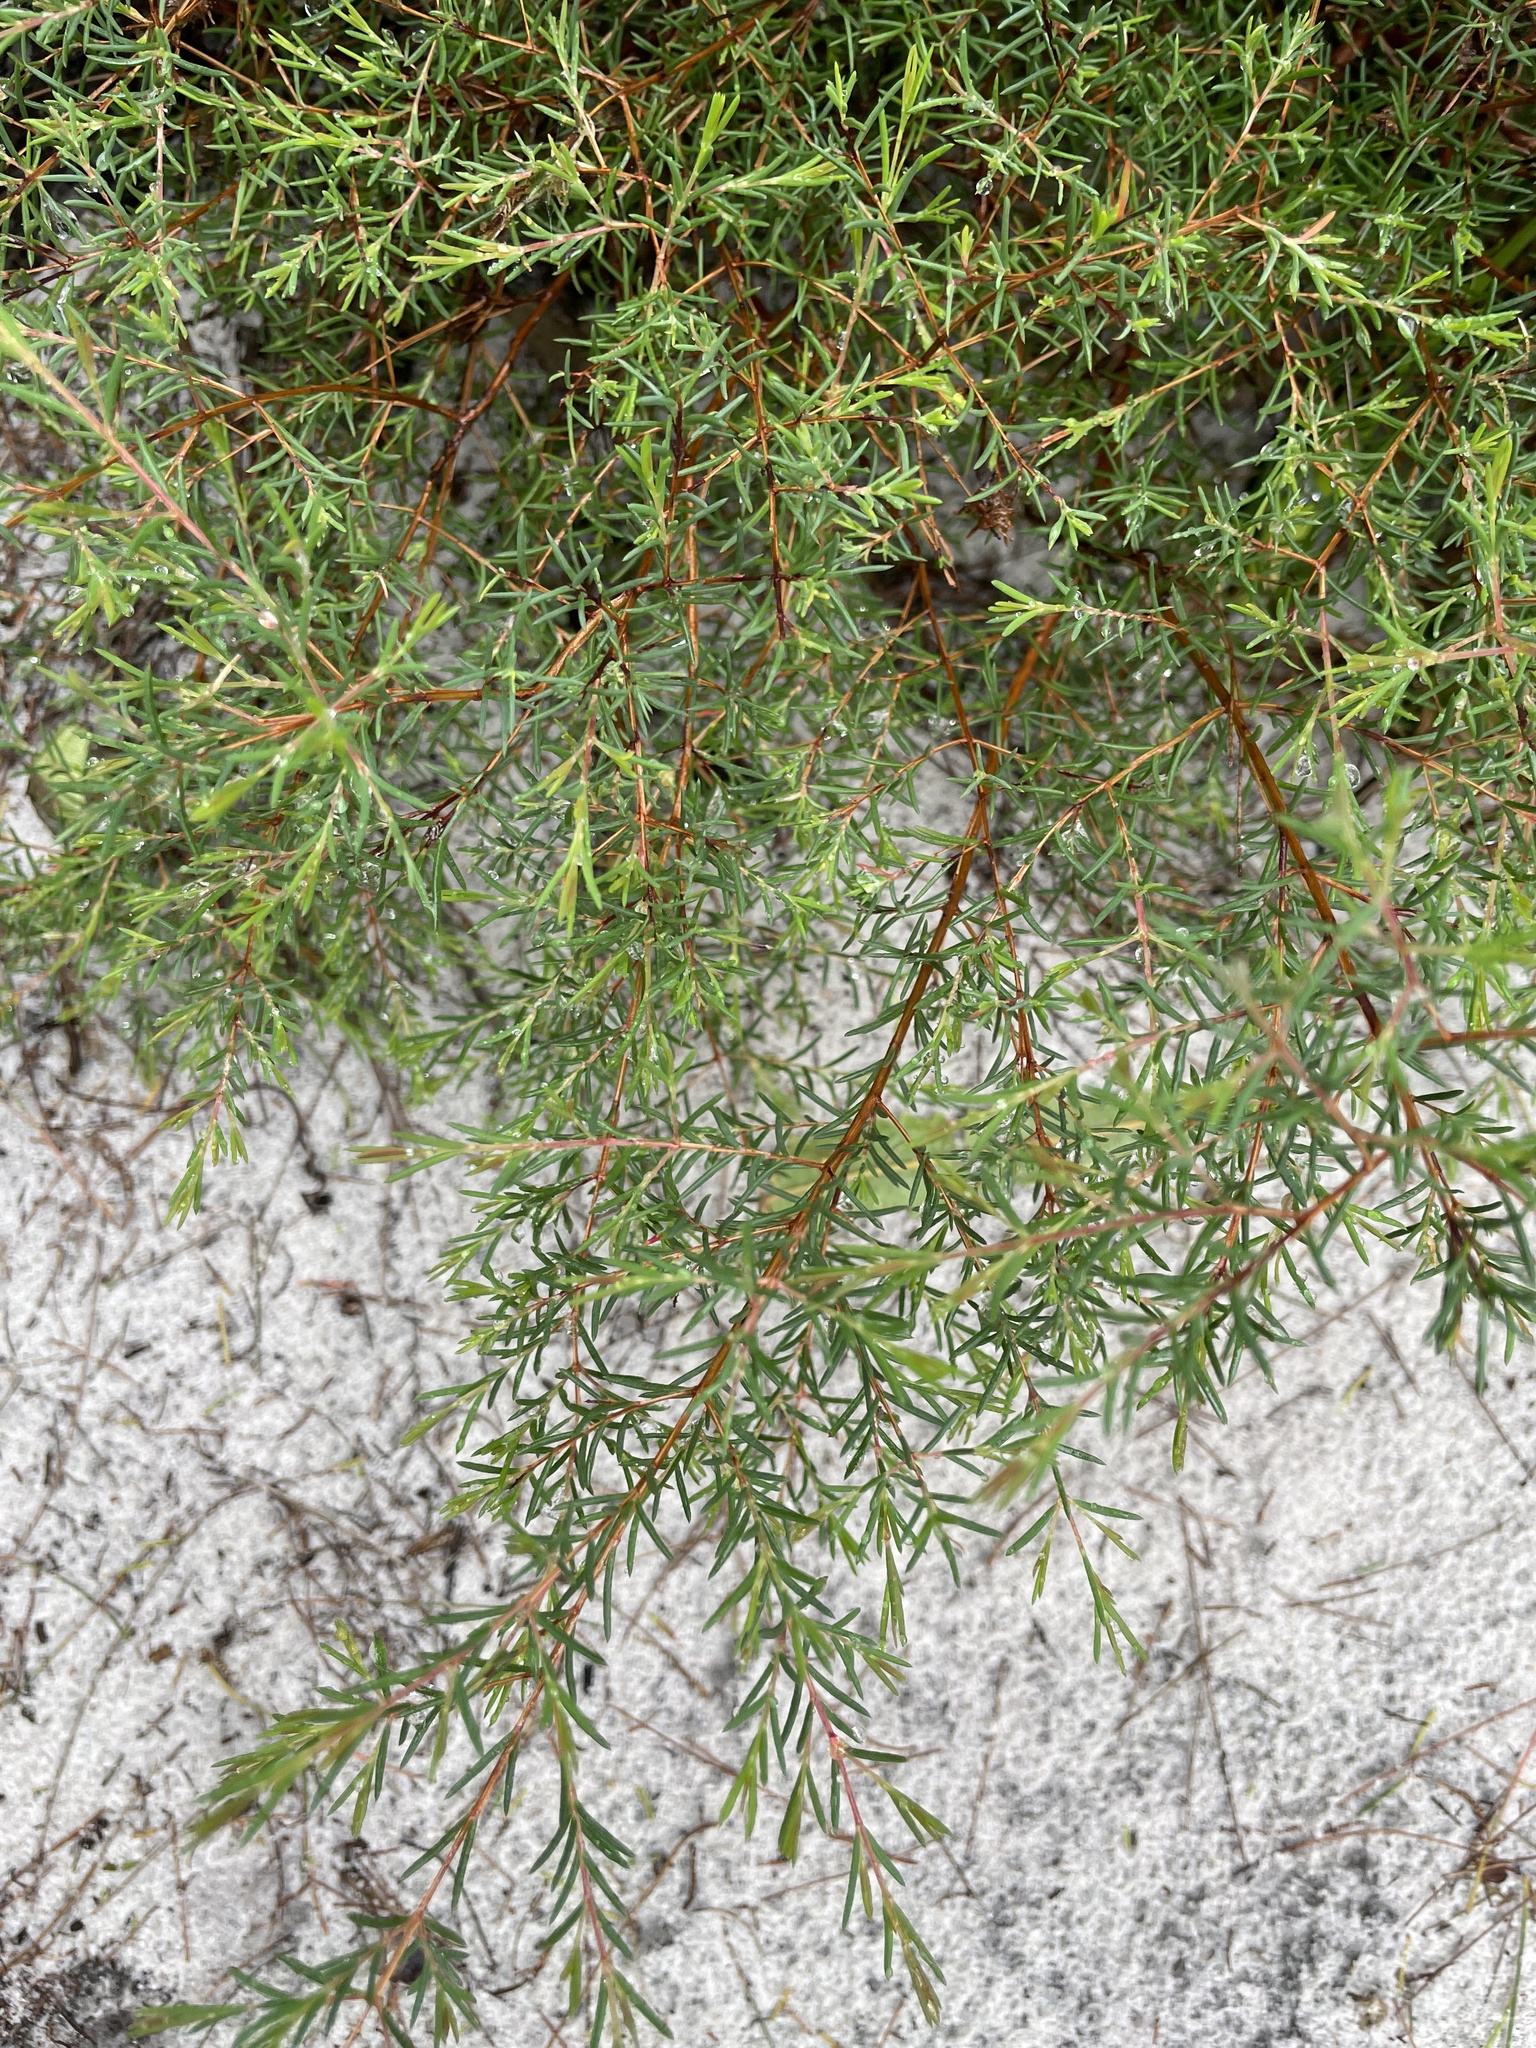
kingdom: Plantae
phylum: Tracheophyta
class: Magnoliopsida
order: Myrtales
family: Myrtaceae
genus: Homoranthus
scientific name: Homoranthus virgatus
